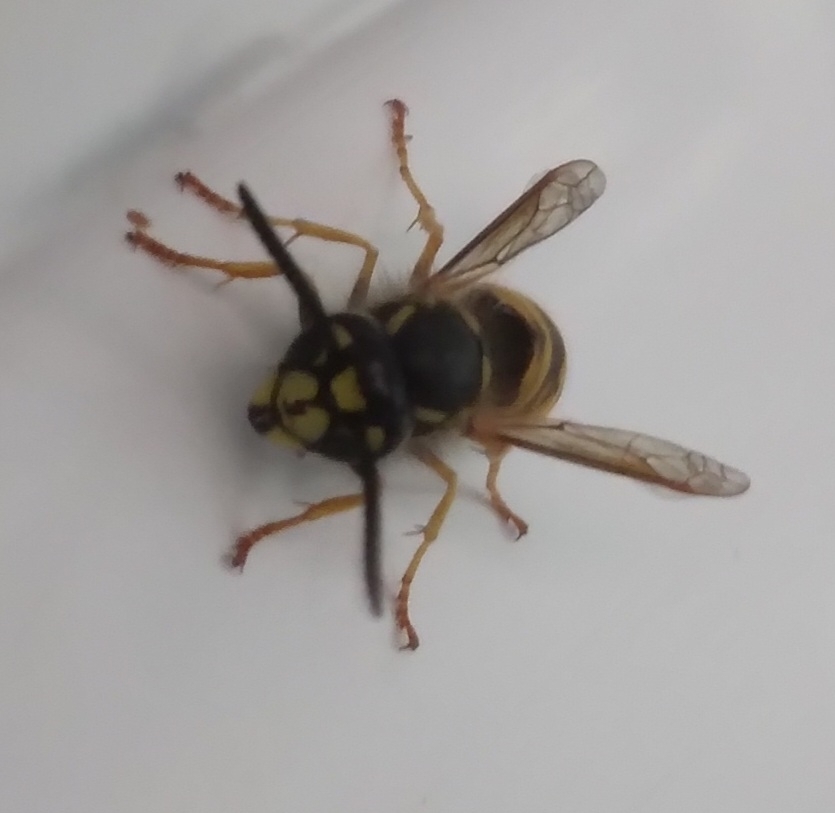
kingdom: Animalia
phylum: Arthropoda
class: Insecta
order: Hymenoptera
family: Vespidae
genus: Vespula
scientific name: Vespula vulgaris
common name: Common wasp
